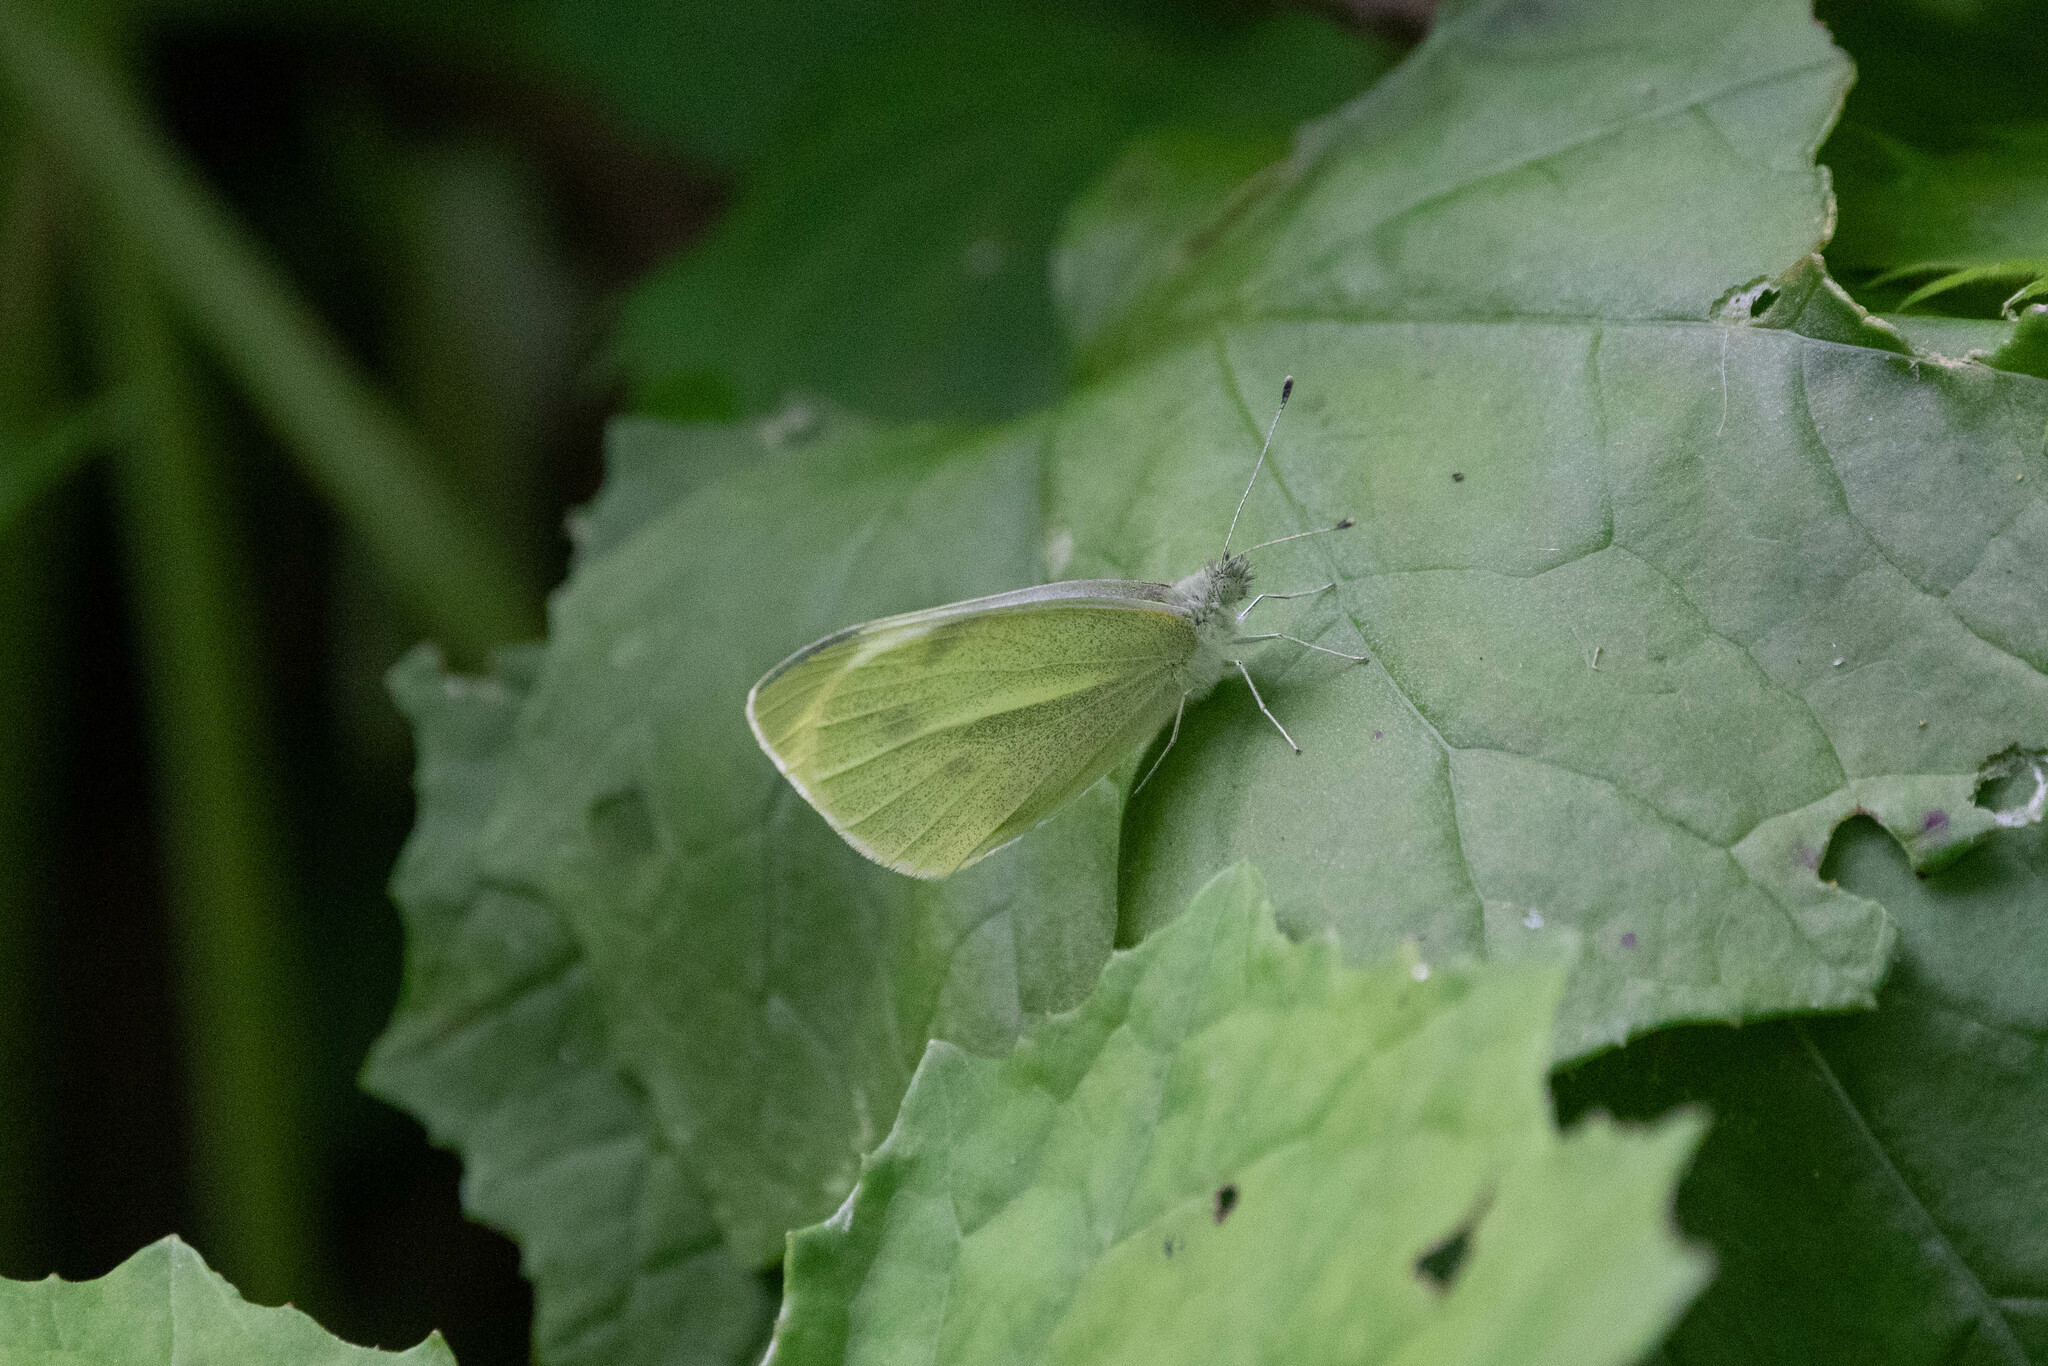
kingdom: Animalia
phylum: Arthropoda
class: Insecta
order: Lepidoptera
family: Pieridae
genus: Pieris
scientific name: Pieris rapae
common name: Small white
